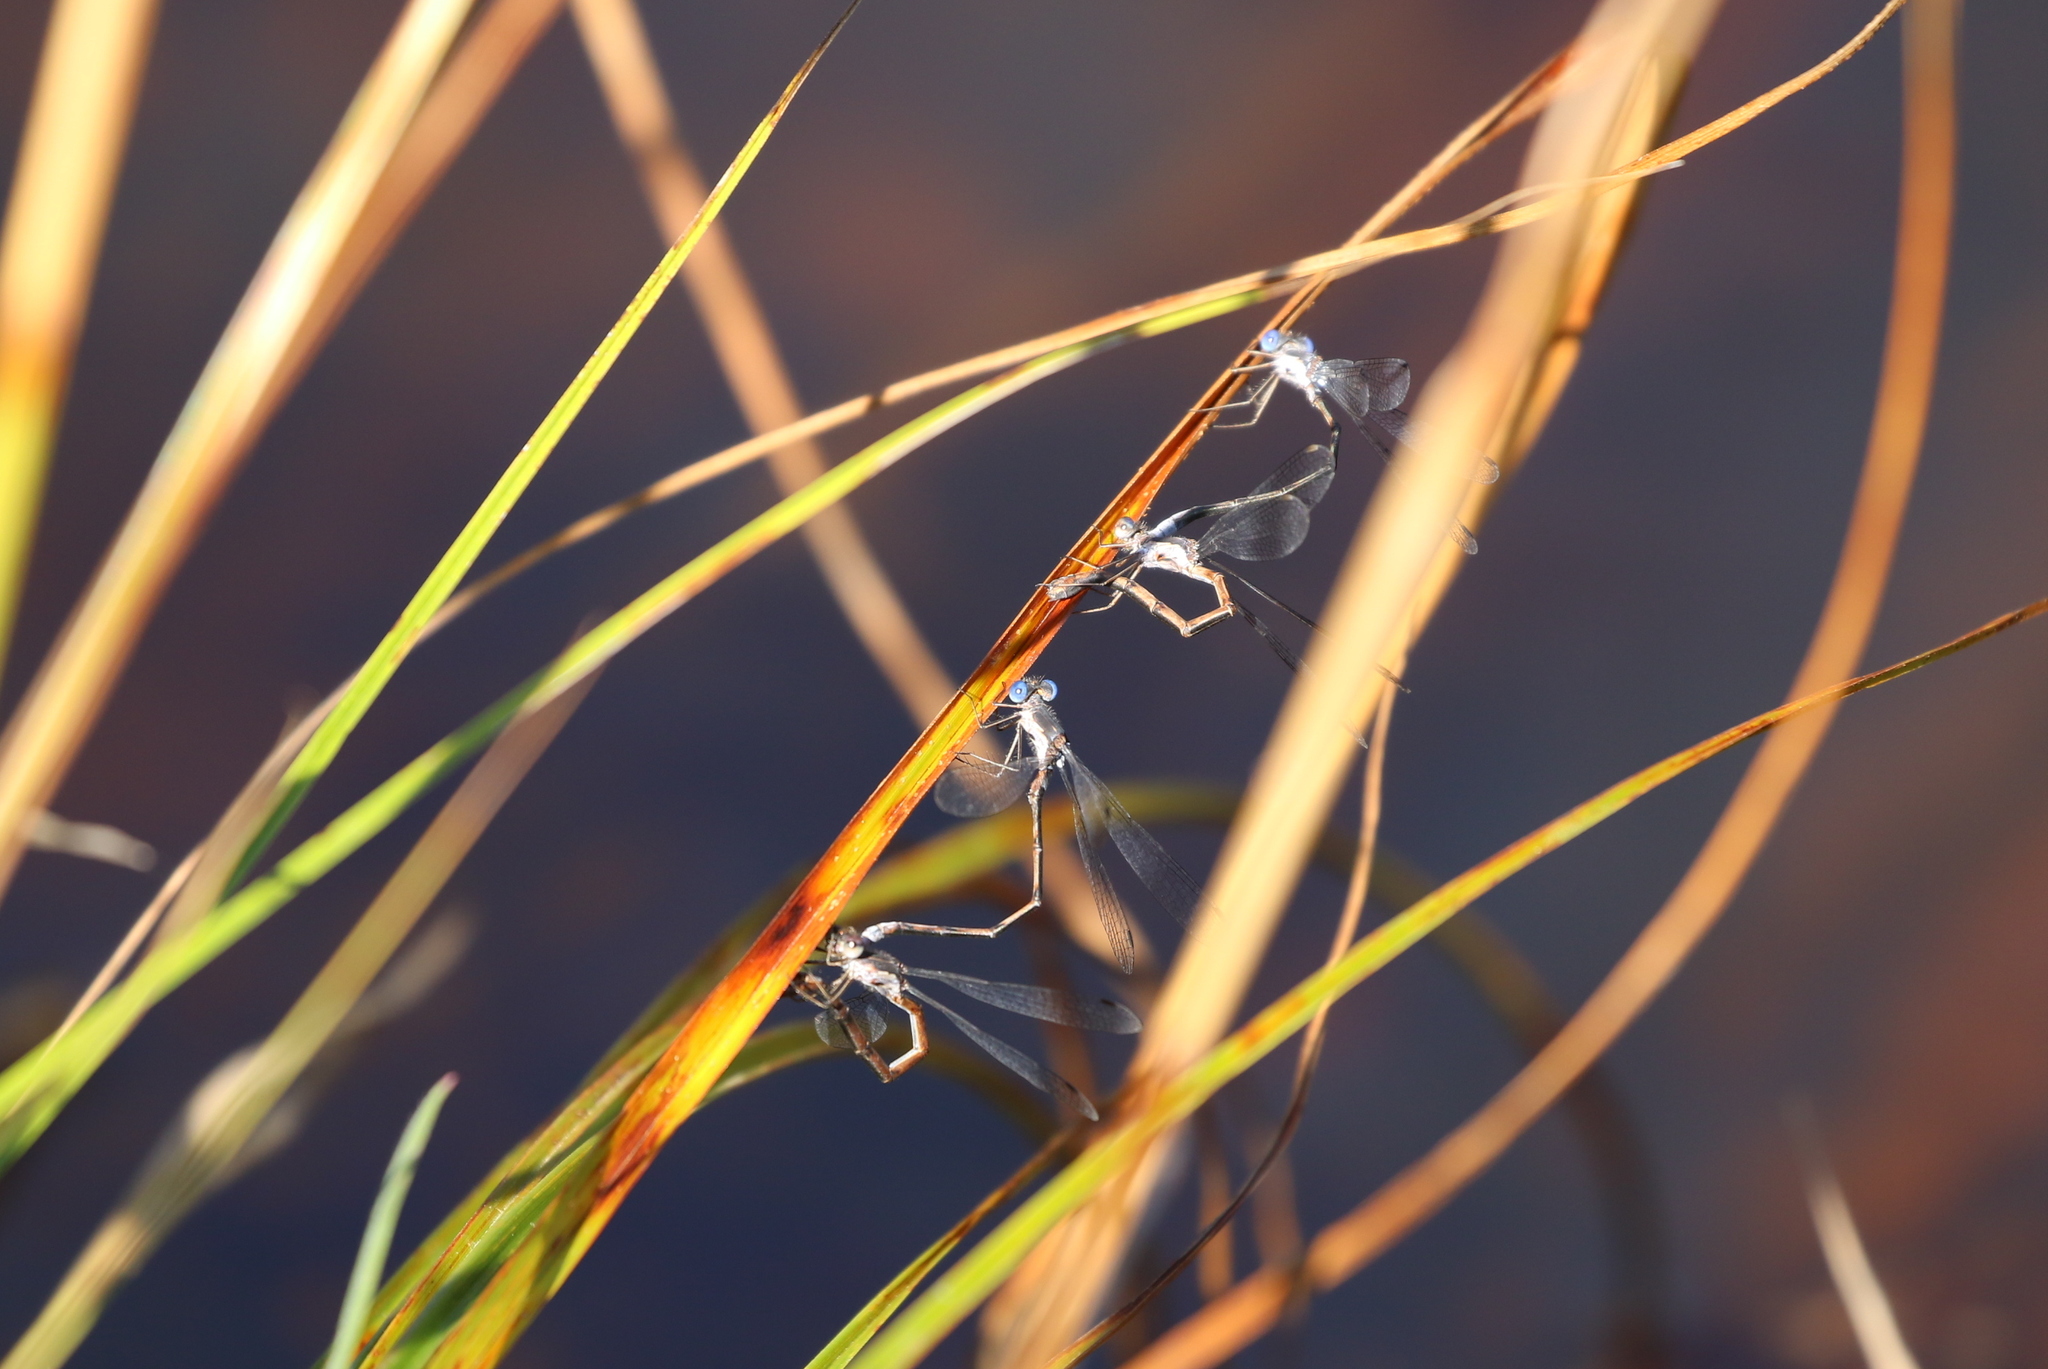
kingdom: Animalia
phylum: Arthropoda
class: Insecta
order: Odonata
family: Lestidae
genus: Lestes
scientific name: Lestes congener
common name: Spotted spreadwing
